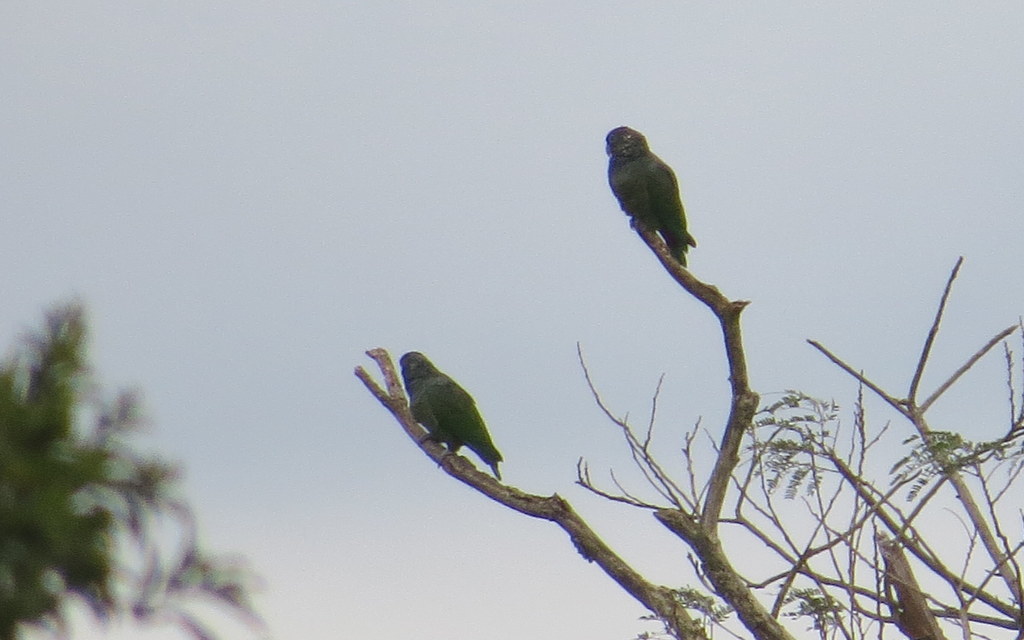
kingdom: Animalia
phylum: Chordata
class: Aves
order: Psittaciformes
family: Psittacidae
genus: Pionus
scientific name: Pionus maximiliani
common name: Scaly-headed parrot
